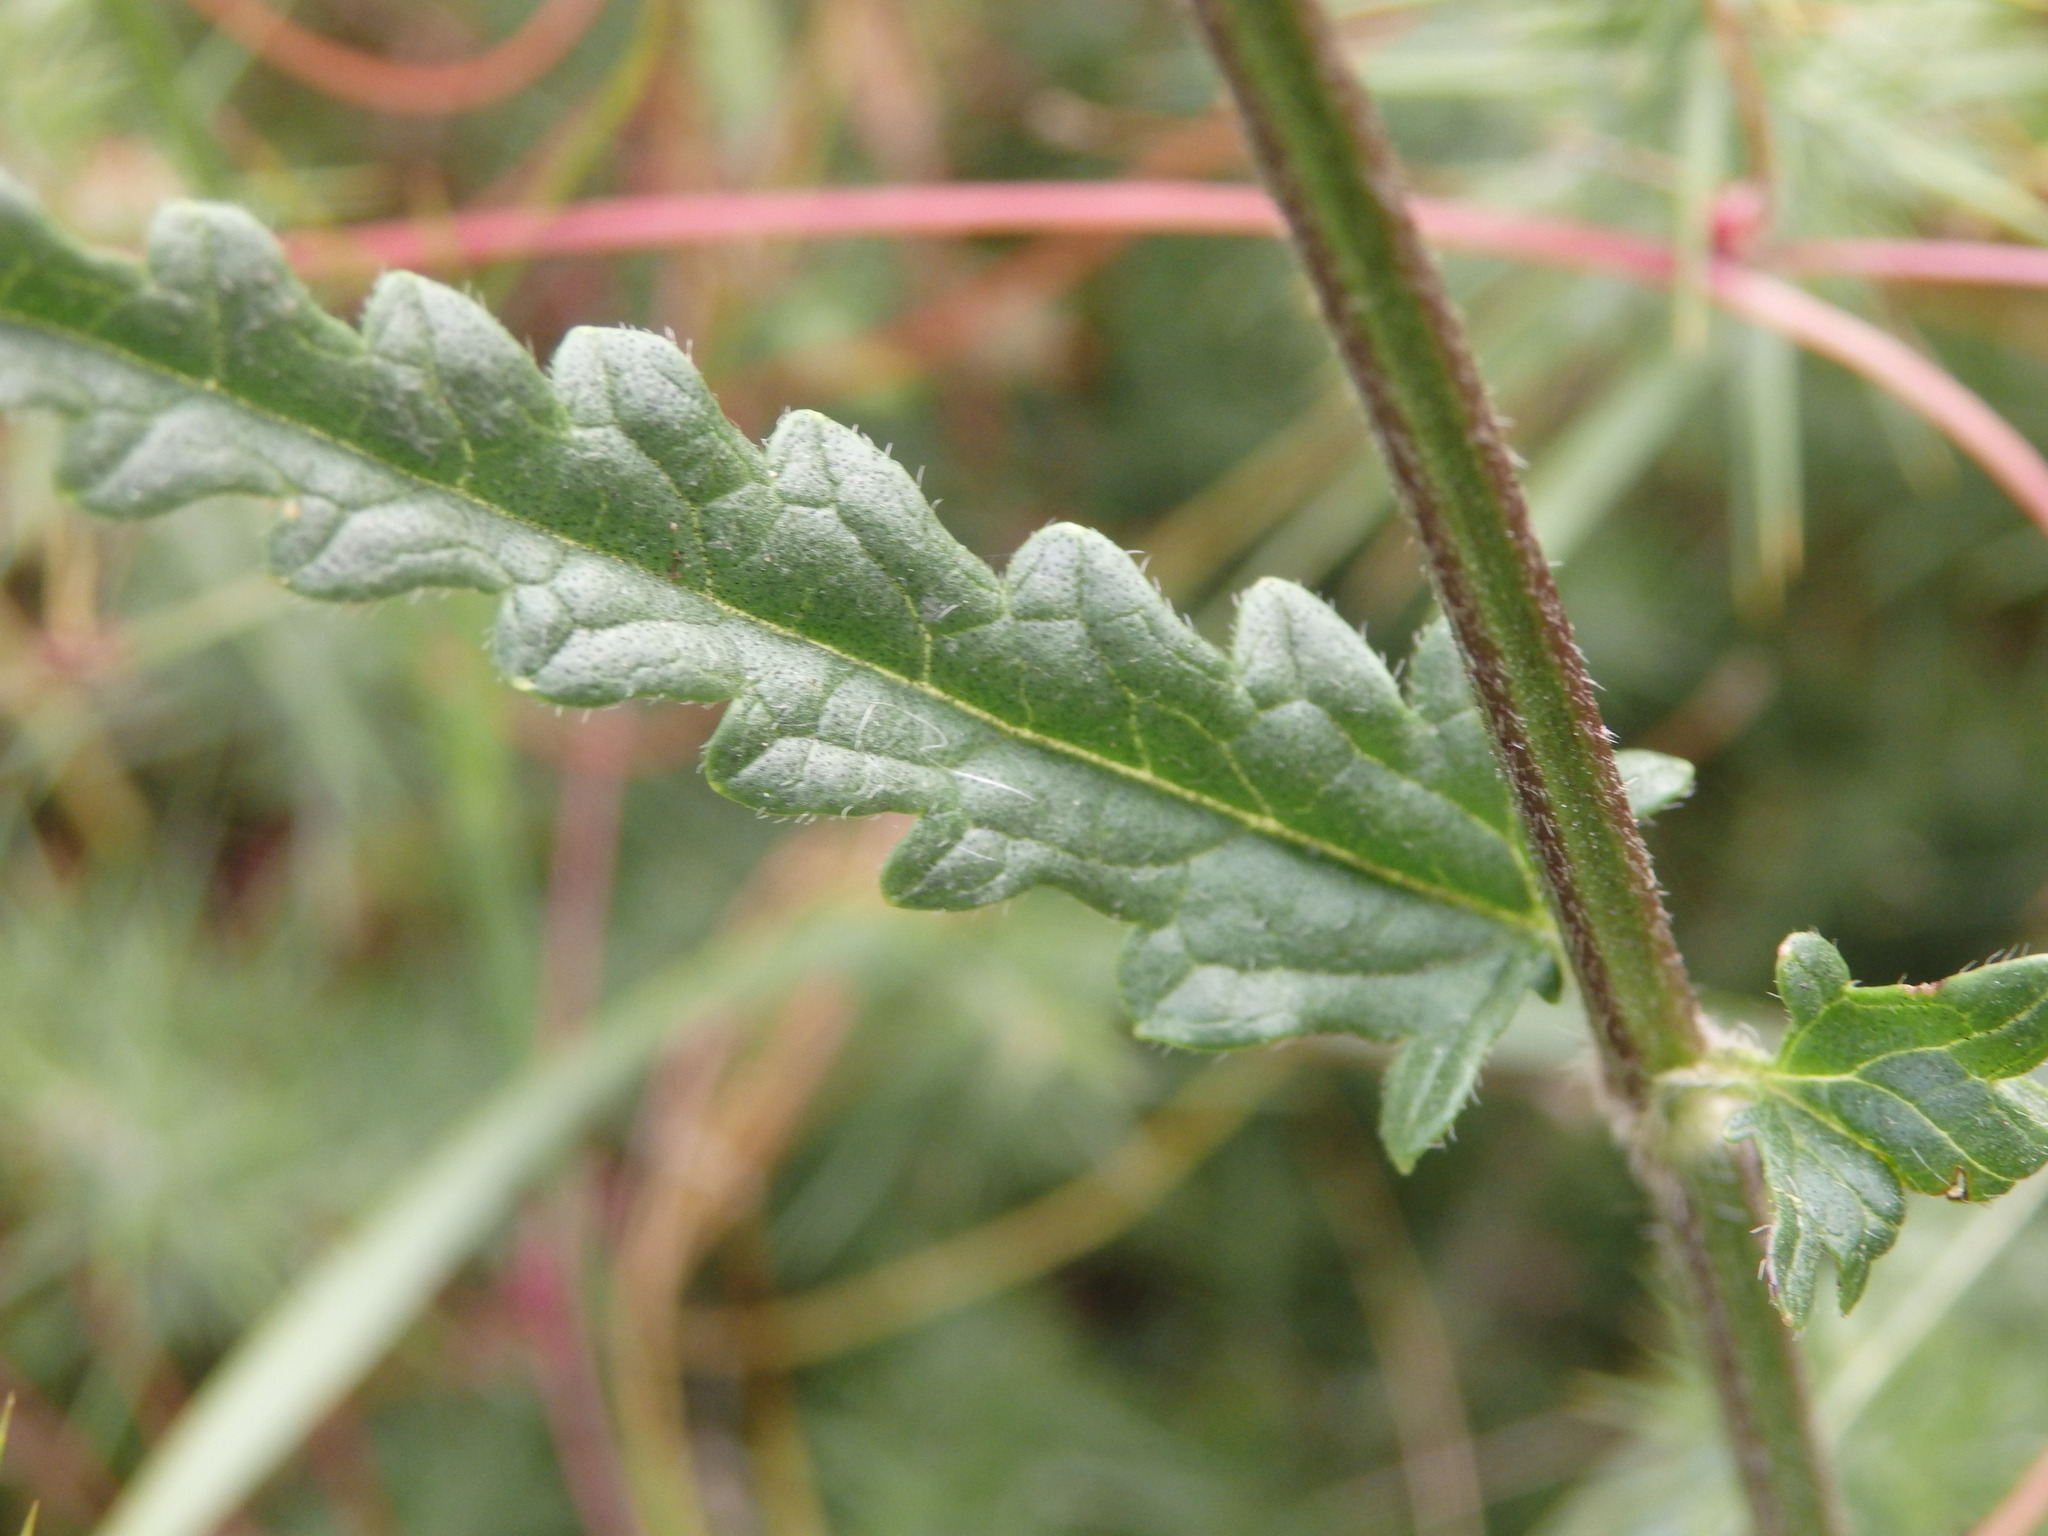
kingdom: Plantae
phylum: Tracheophyta
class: Magnoliopsida
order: Lamiales
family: Lamiaceae
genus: Betonica
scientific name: Betonica officinalis
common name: Bishop's-wort
